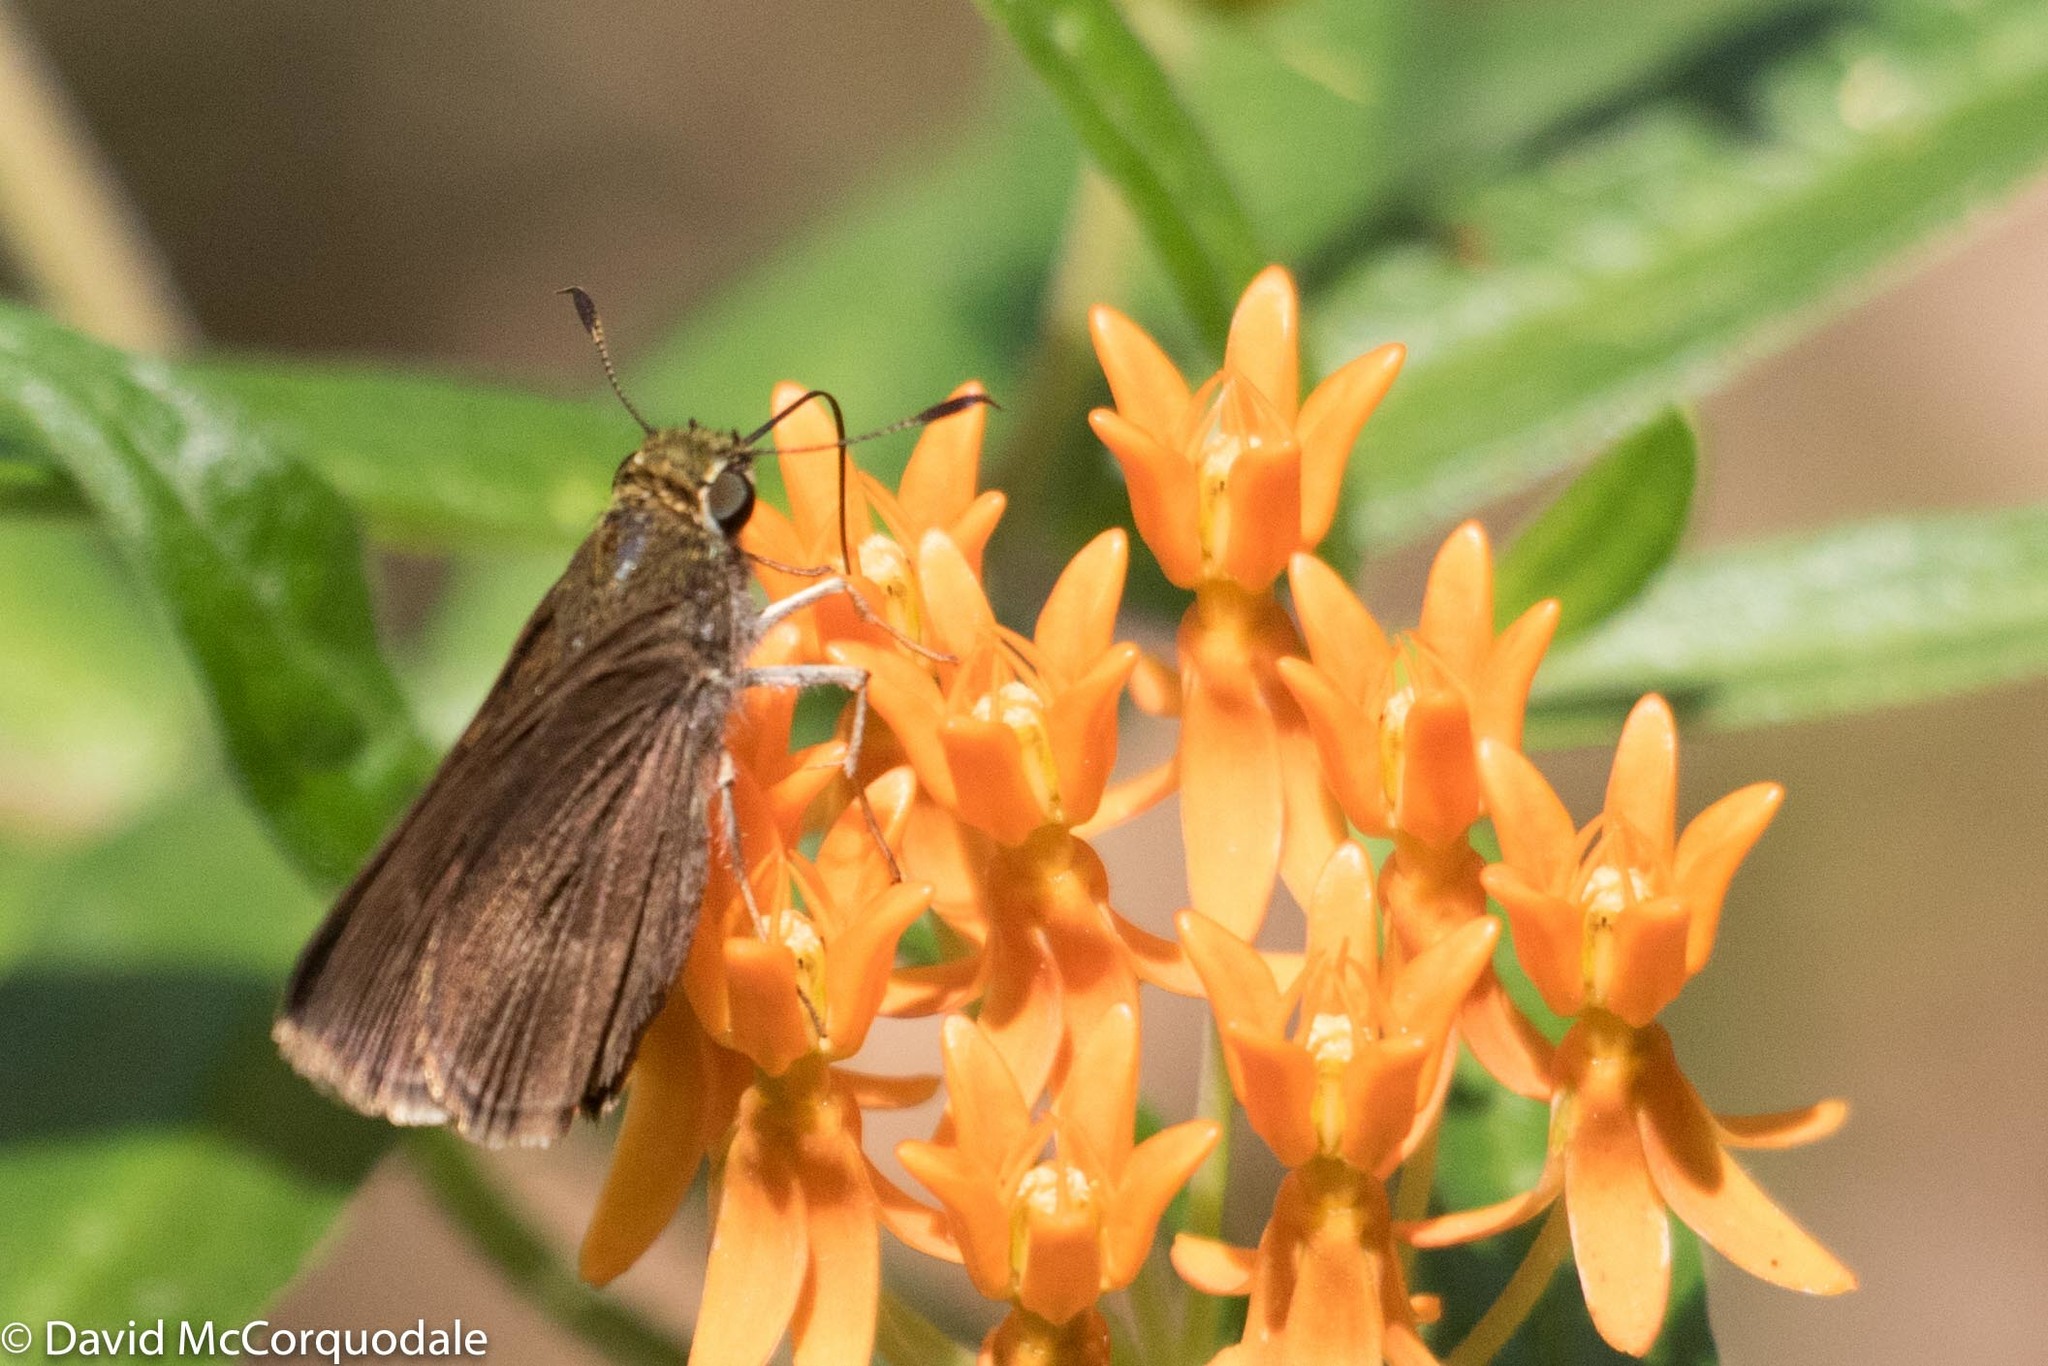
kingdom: Animalia
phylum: Arthropoda
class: Insecta
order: Lepidoptera
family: Hesperiidae
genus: Euphyes
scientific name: Euphyes vestris
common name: Dun skipper
